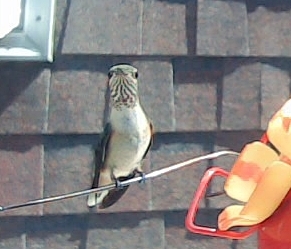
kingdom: Animalia
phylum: Chordata
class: Aves
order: Apodiformes
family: Trochilidae
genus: Selasphorus
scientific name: Selasphorus calliope
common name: Calliope hummingbird
